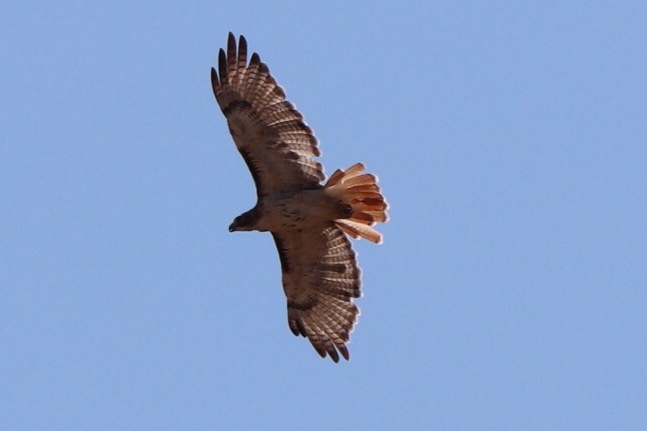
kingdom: Animalia
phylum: Chordata
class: Aves
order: Accipitriformes
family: Accipitridae
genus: Buteo
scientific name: Buteo jamaicensis
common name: Red-tailed hawk
